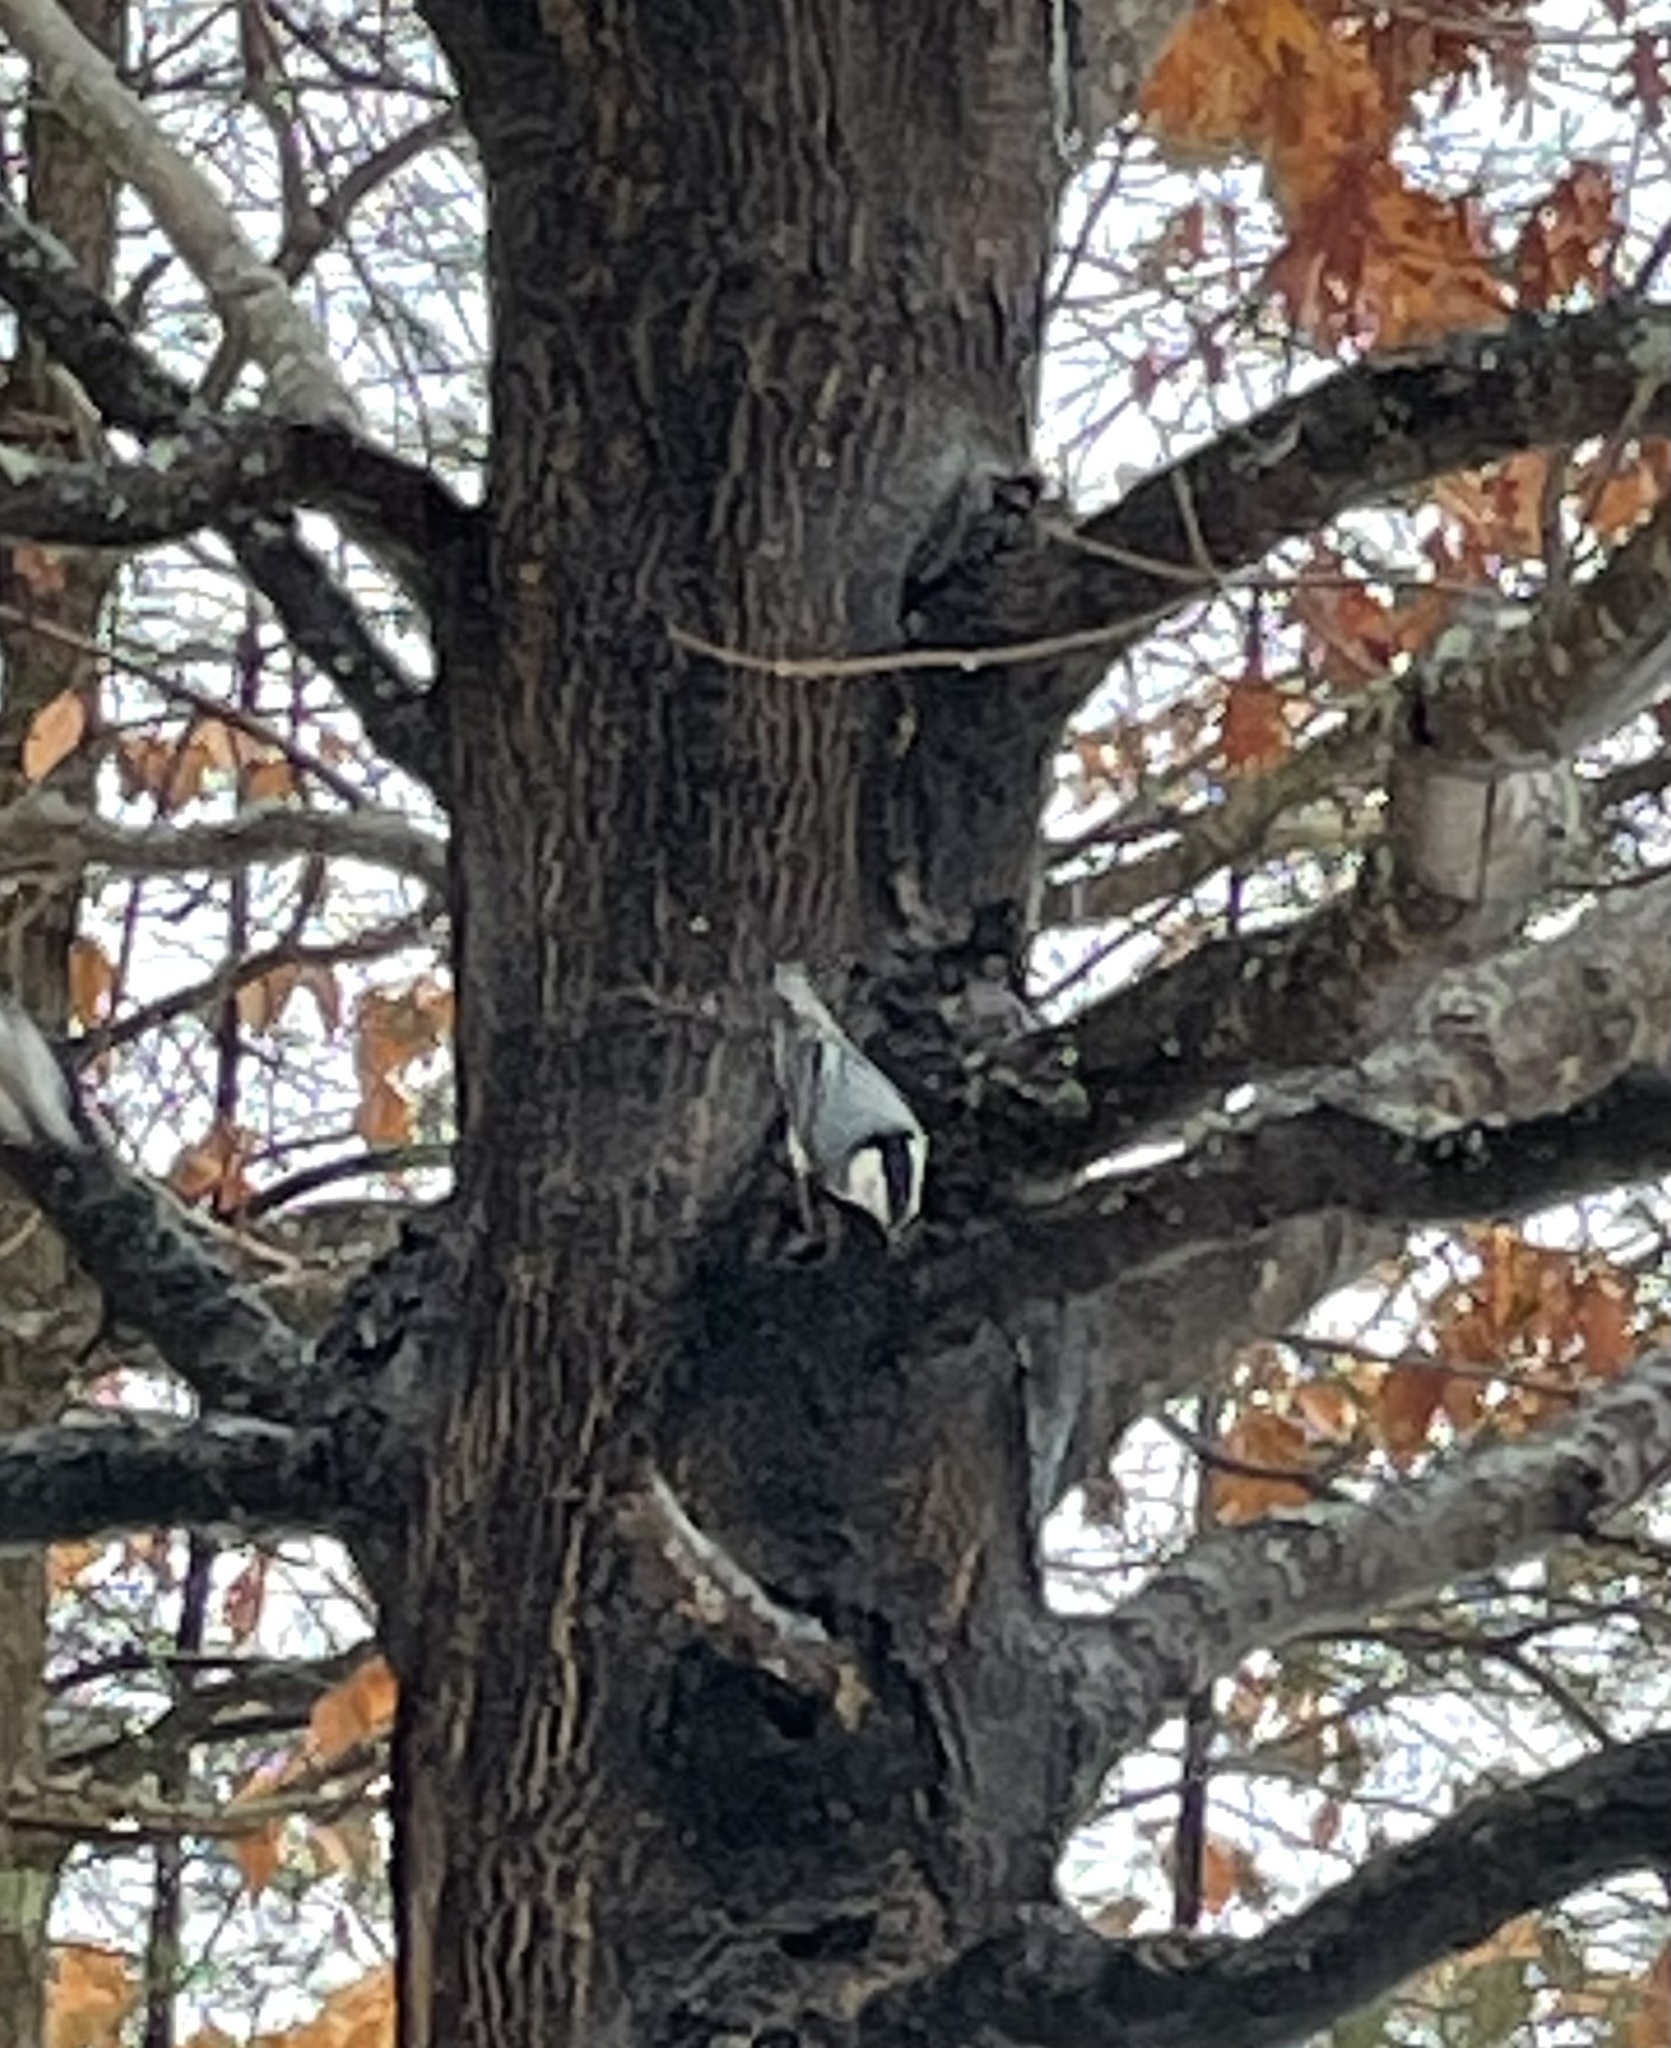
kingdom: Animalia
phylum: Chordata
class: Aves
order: Passeriformes
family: Sittidae
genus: Sitta
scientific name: Sitta carolinensis
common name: White-breasted nuthatch
